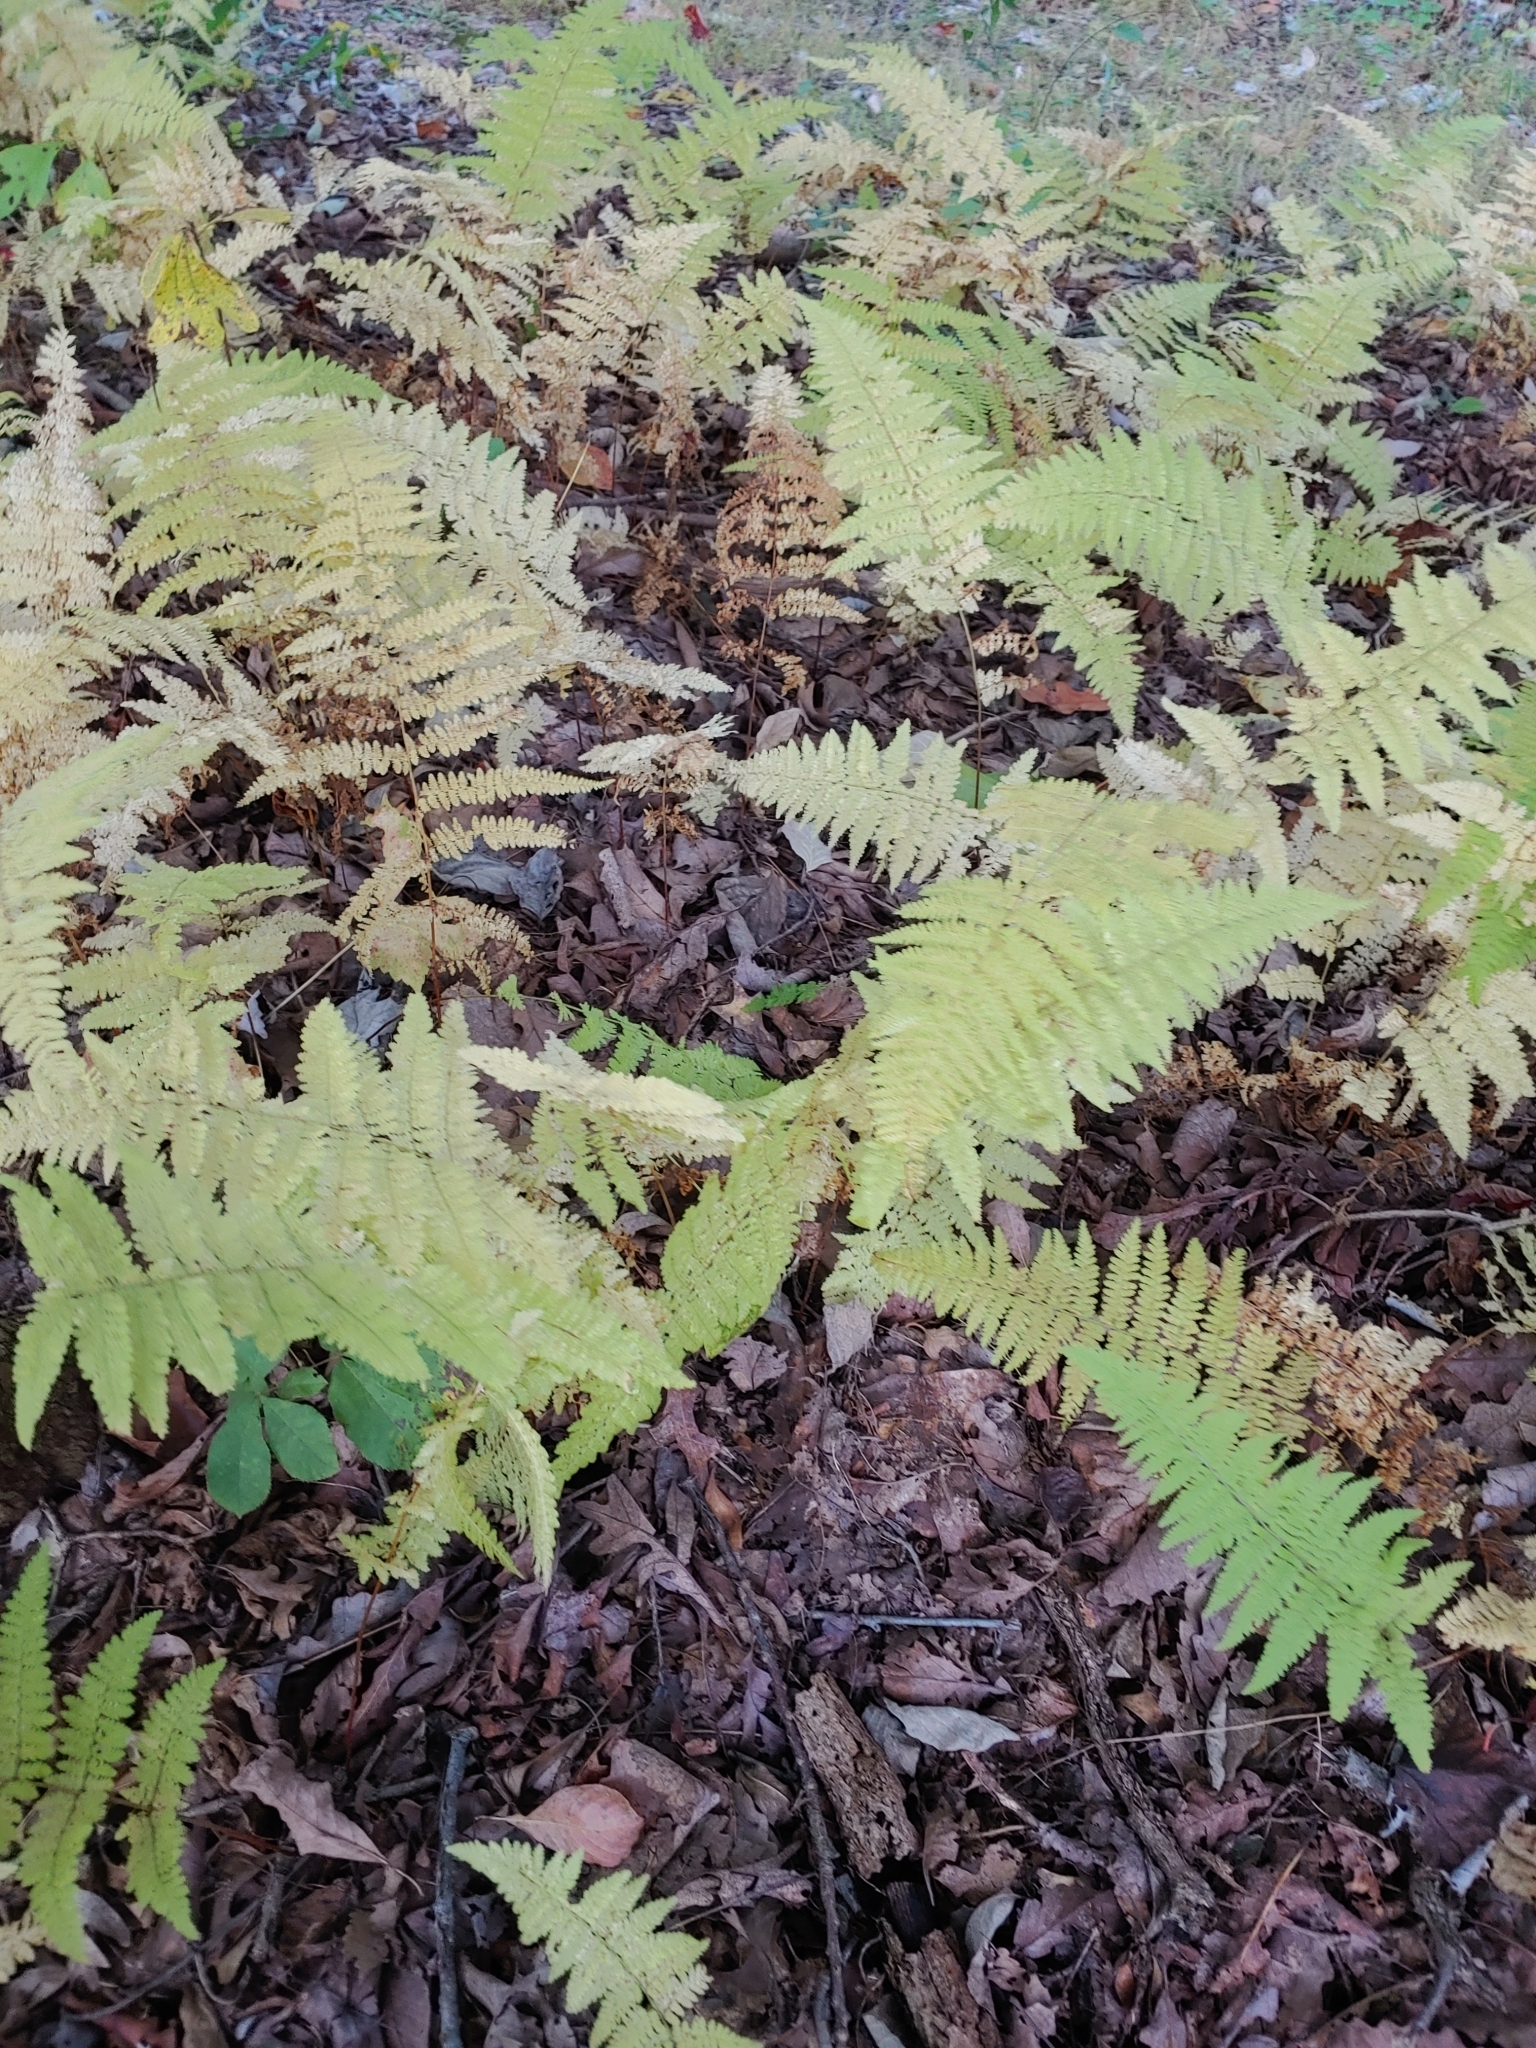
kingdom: Plantae
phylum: Tracheophyta
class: Polypodiopsida
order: Polypodiales
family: Dennstaedtiaceae
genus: Sitobolium
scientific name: Sitobolium punctilobum
